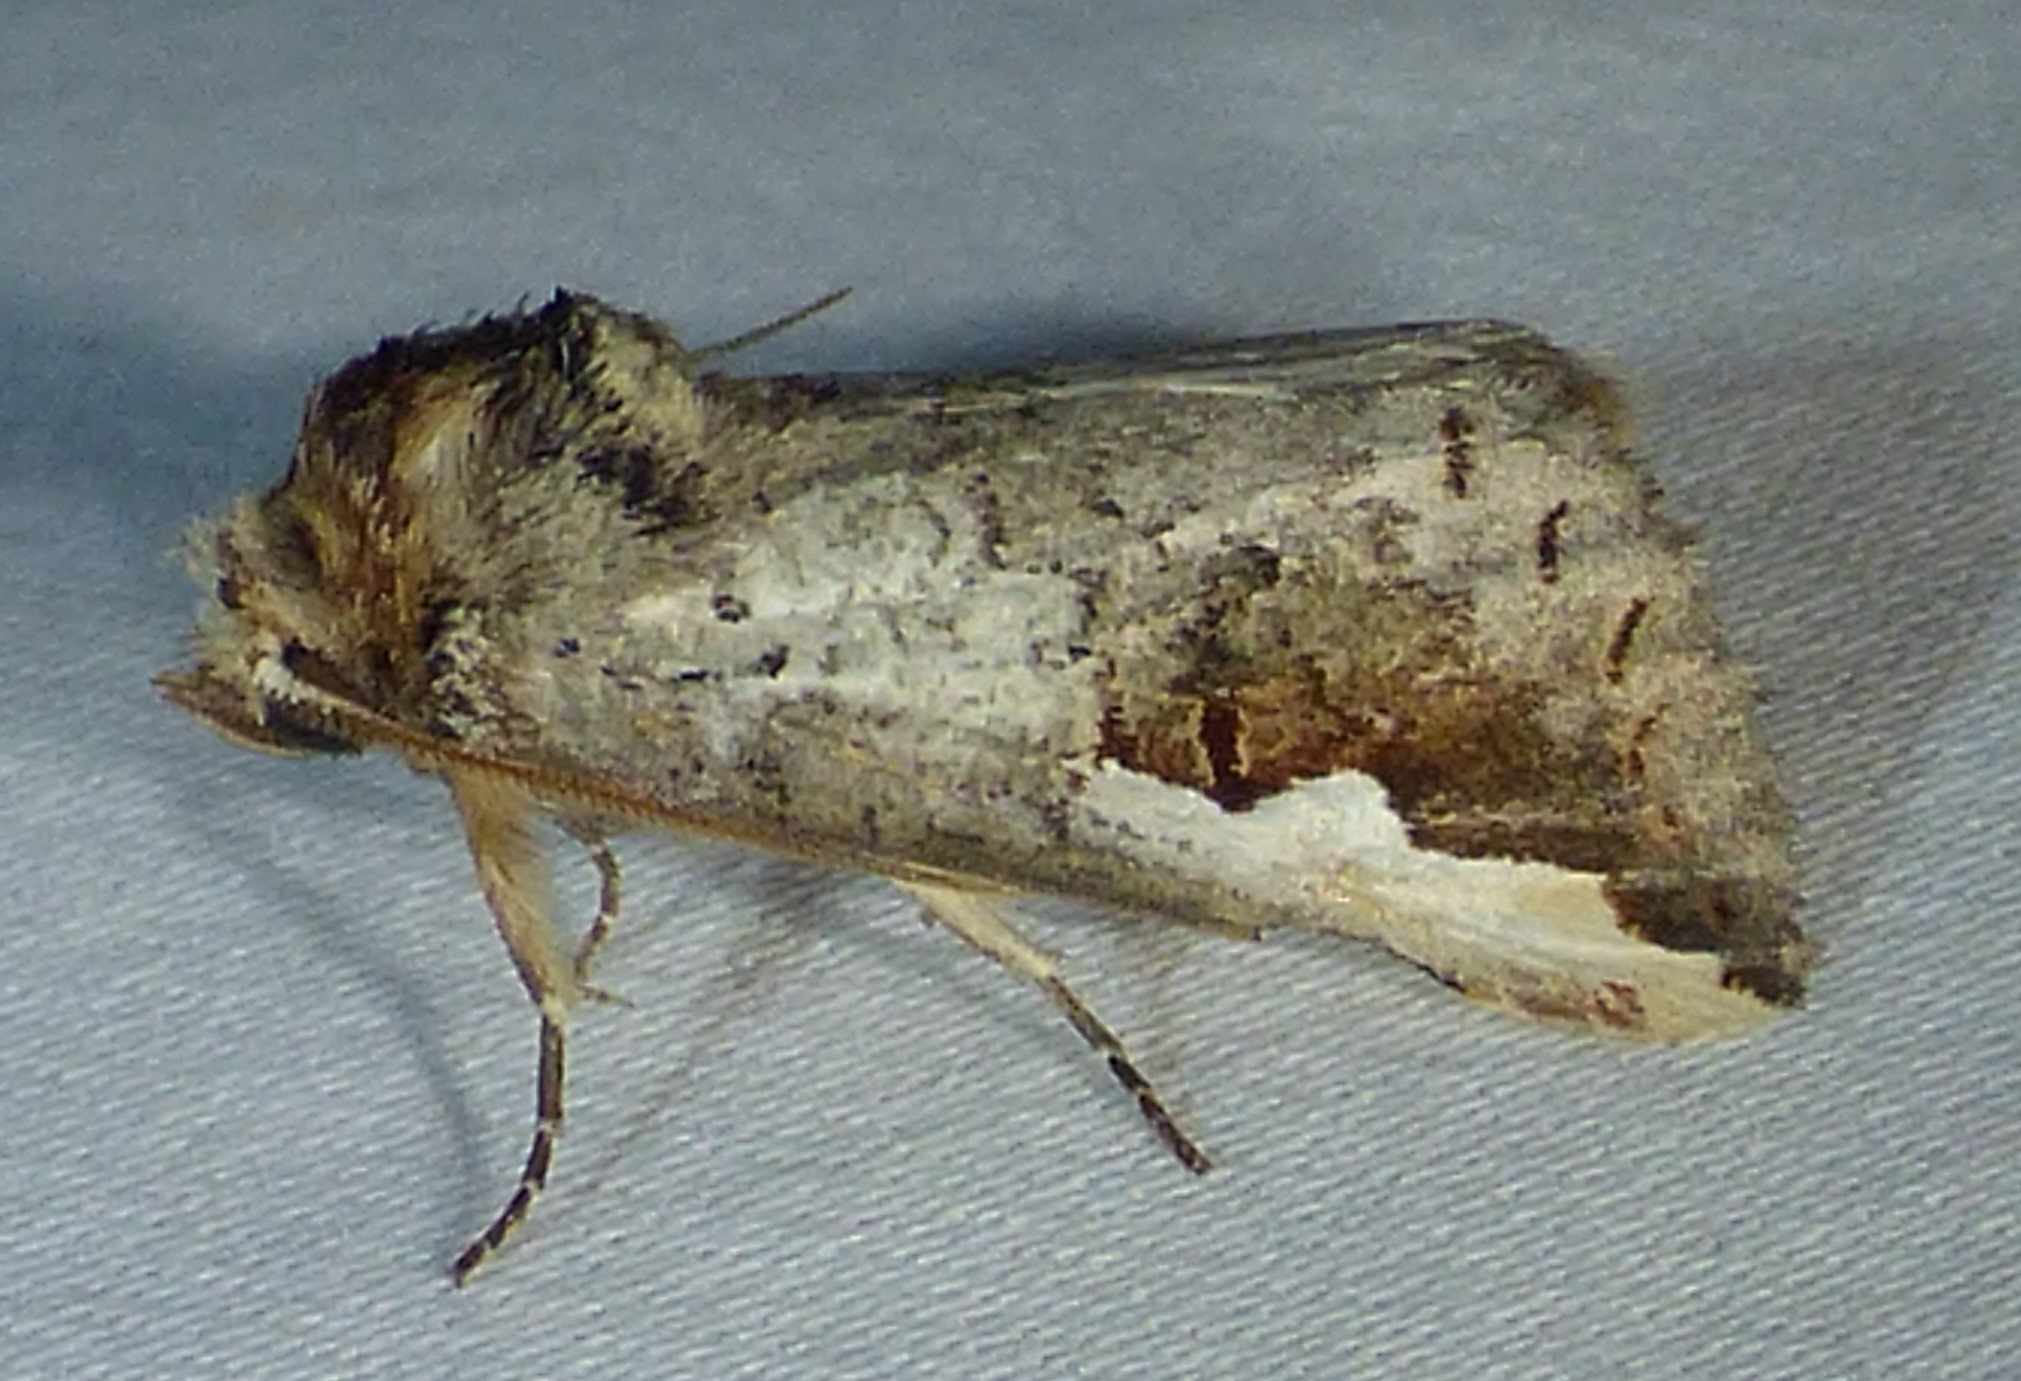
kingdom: Animalia
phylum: Arthropoda
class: Insecta
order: Lepidoptera
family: Notodontidae
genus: Symmerista
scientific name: Symmerista albifrons
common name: White-headed prominent
